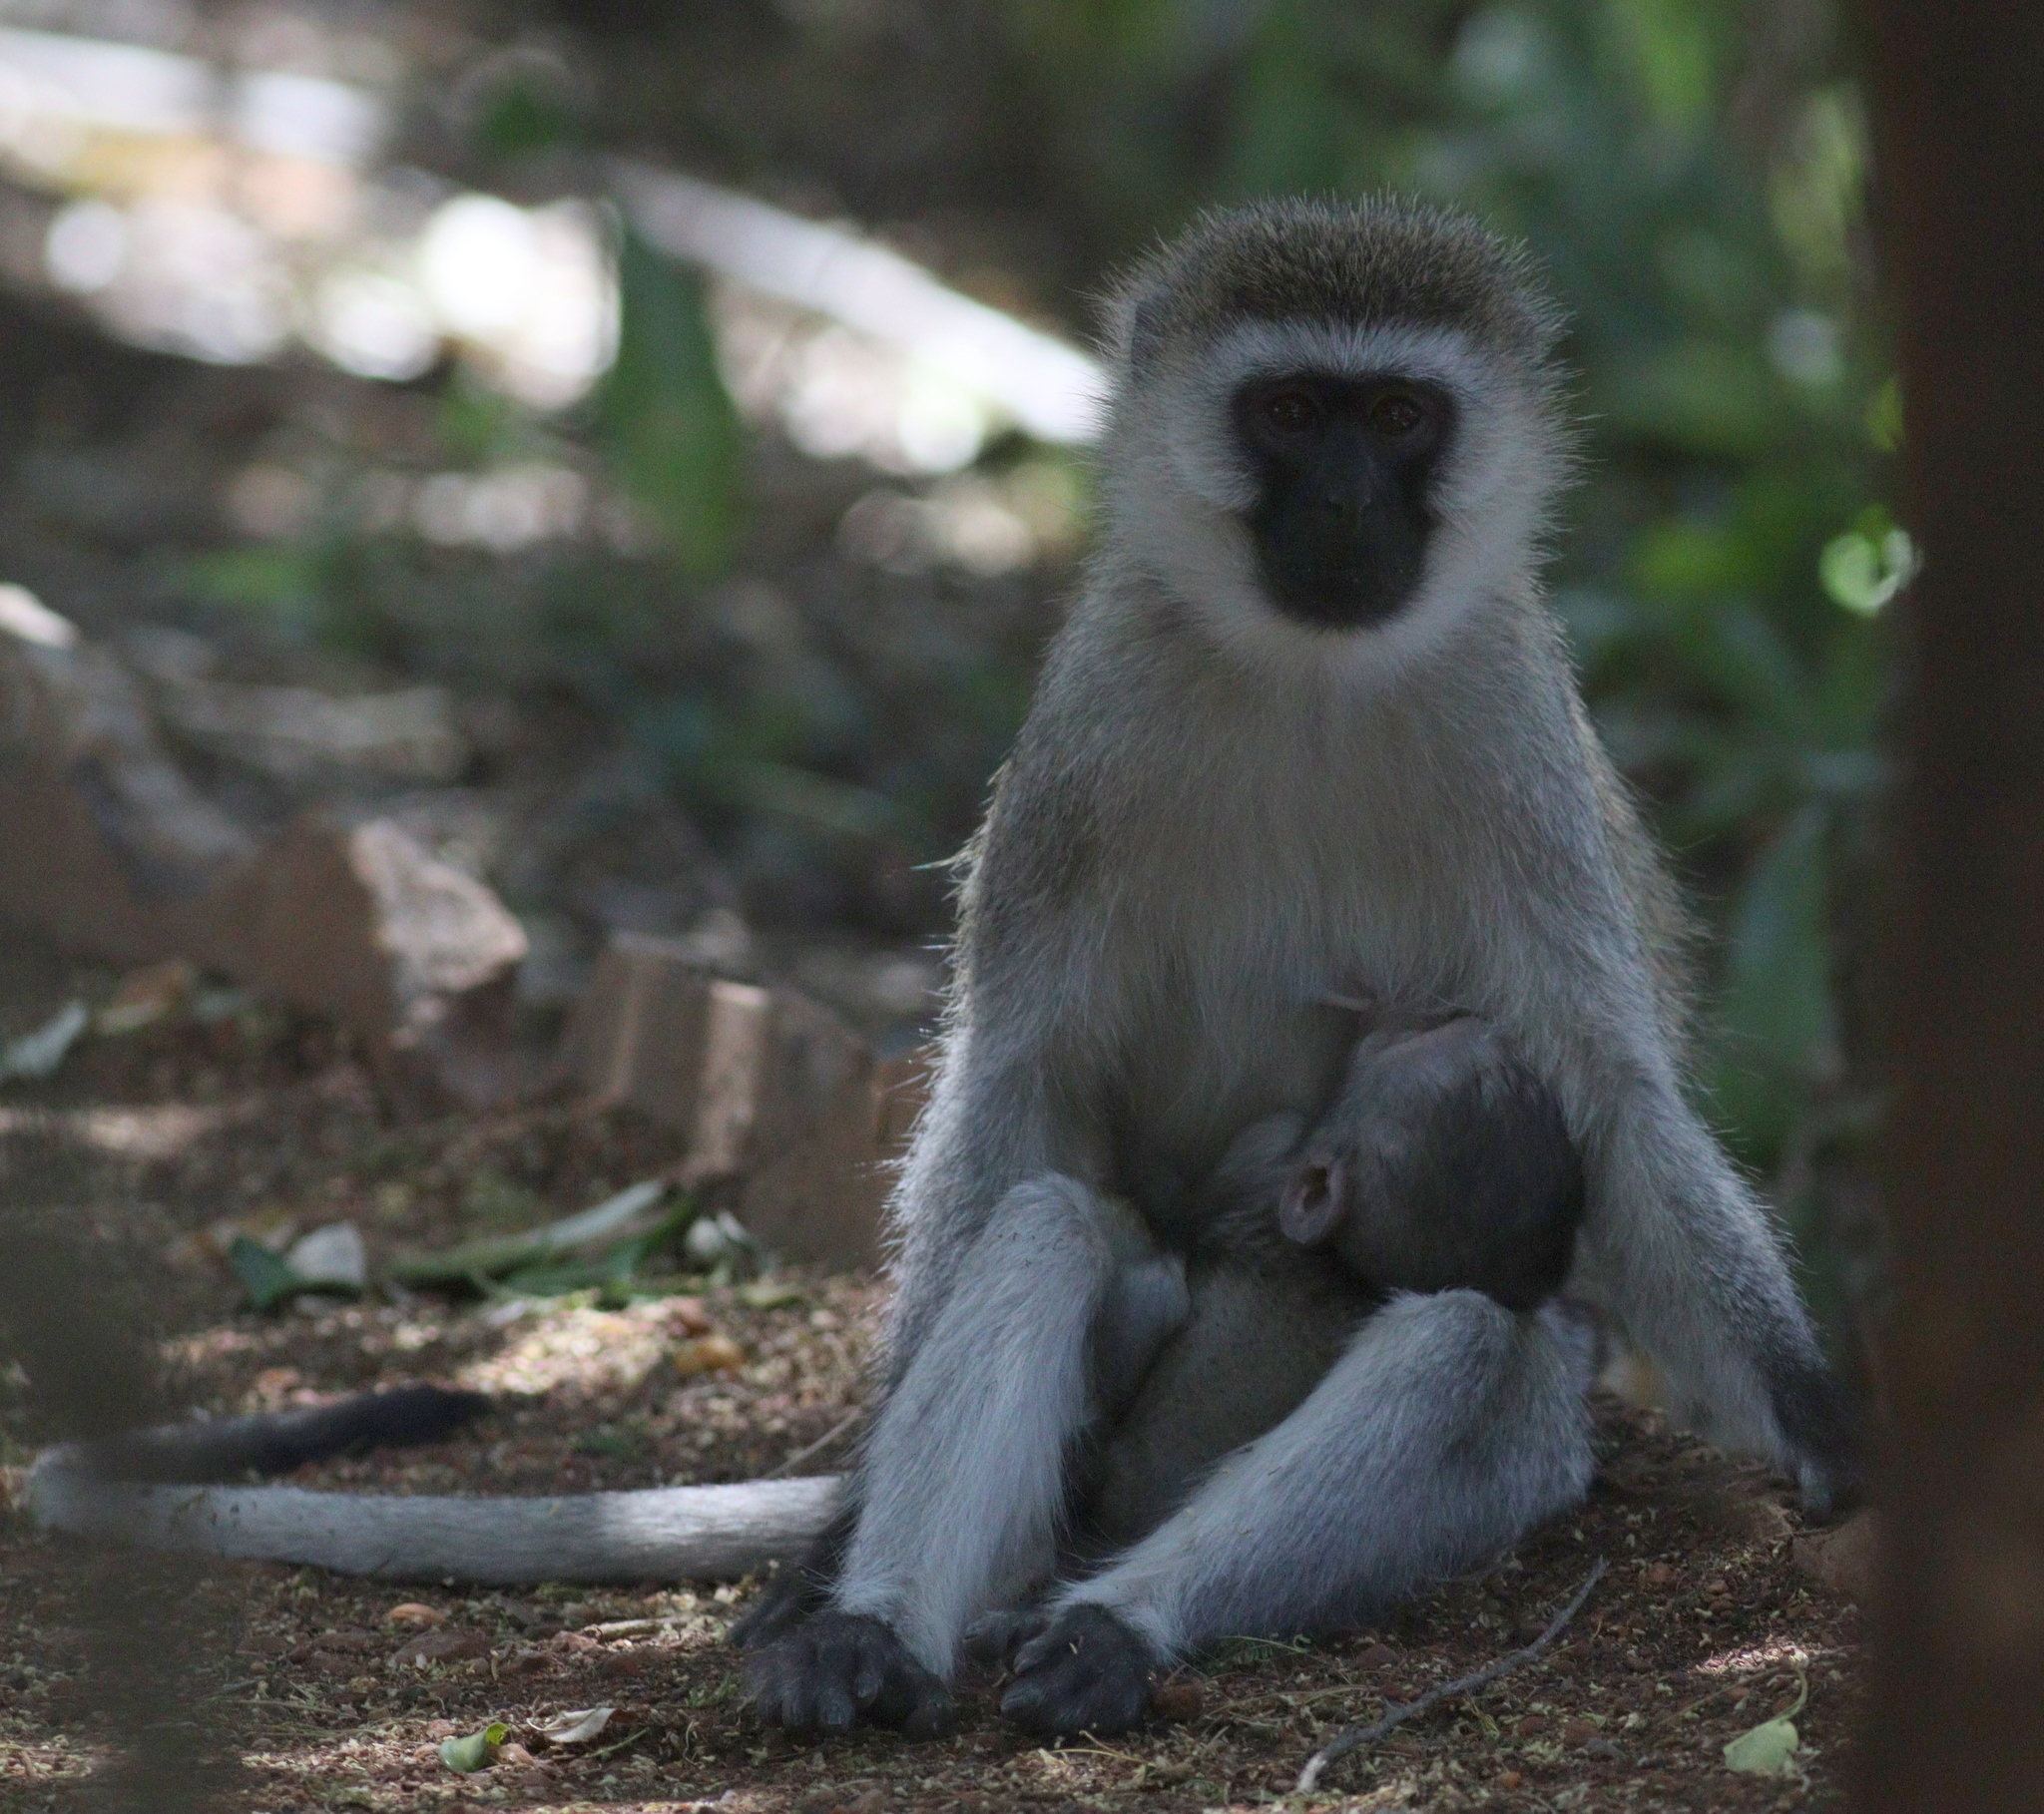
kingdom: Animalia
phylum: Chordata
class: Mammalia
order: Primates
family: Cercopithecidae
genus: Chlorocebus
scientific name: Chlorocebus pygerythrus
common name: Vervet monkey
